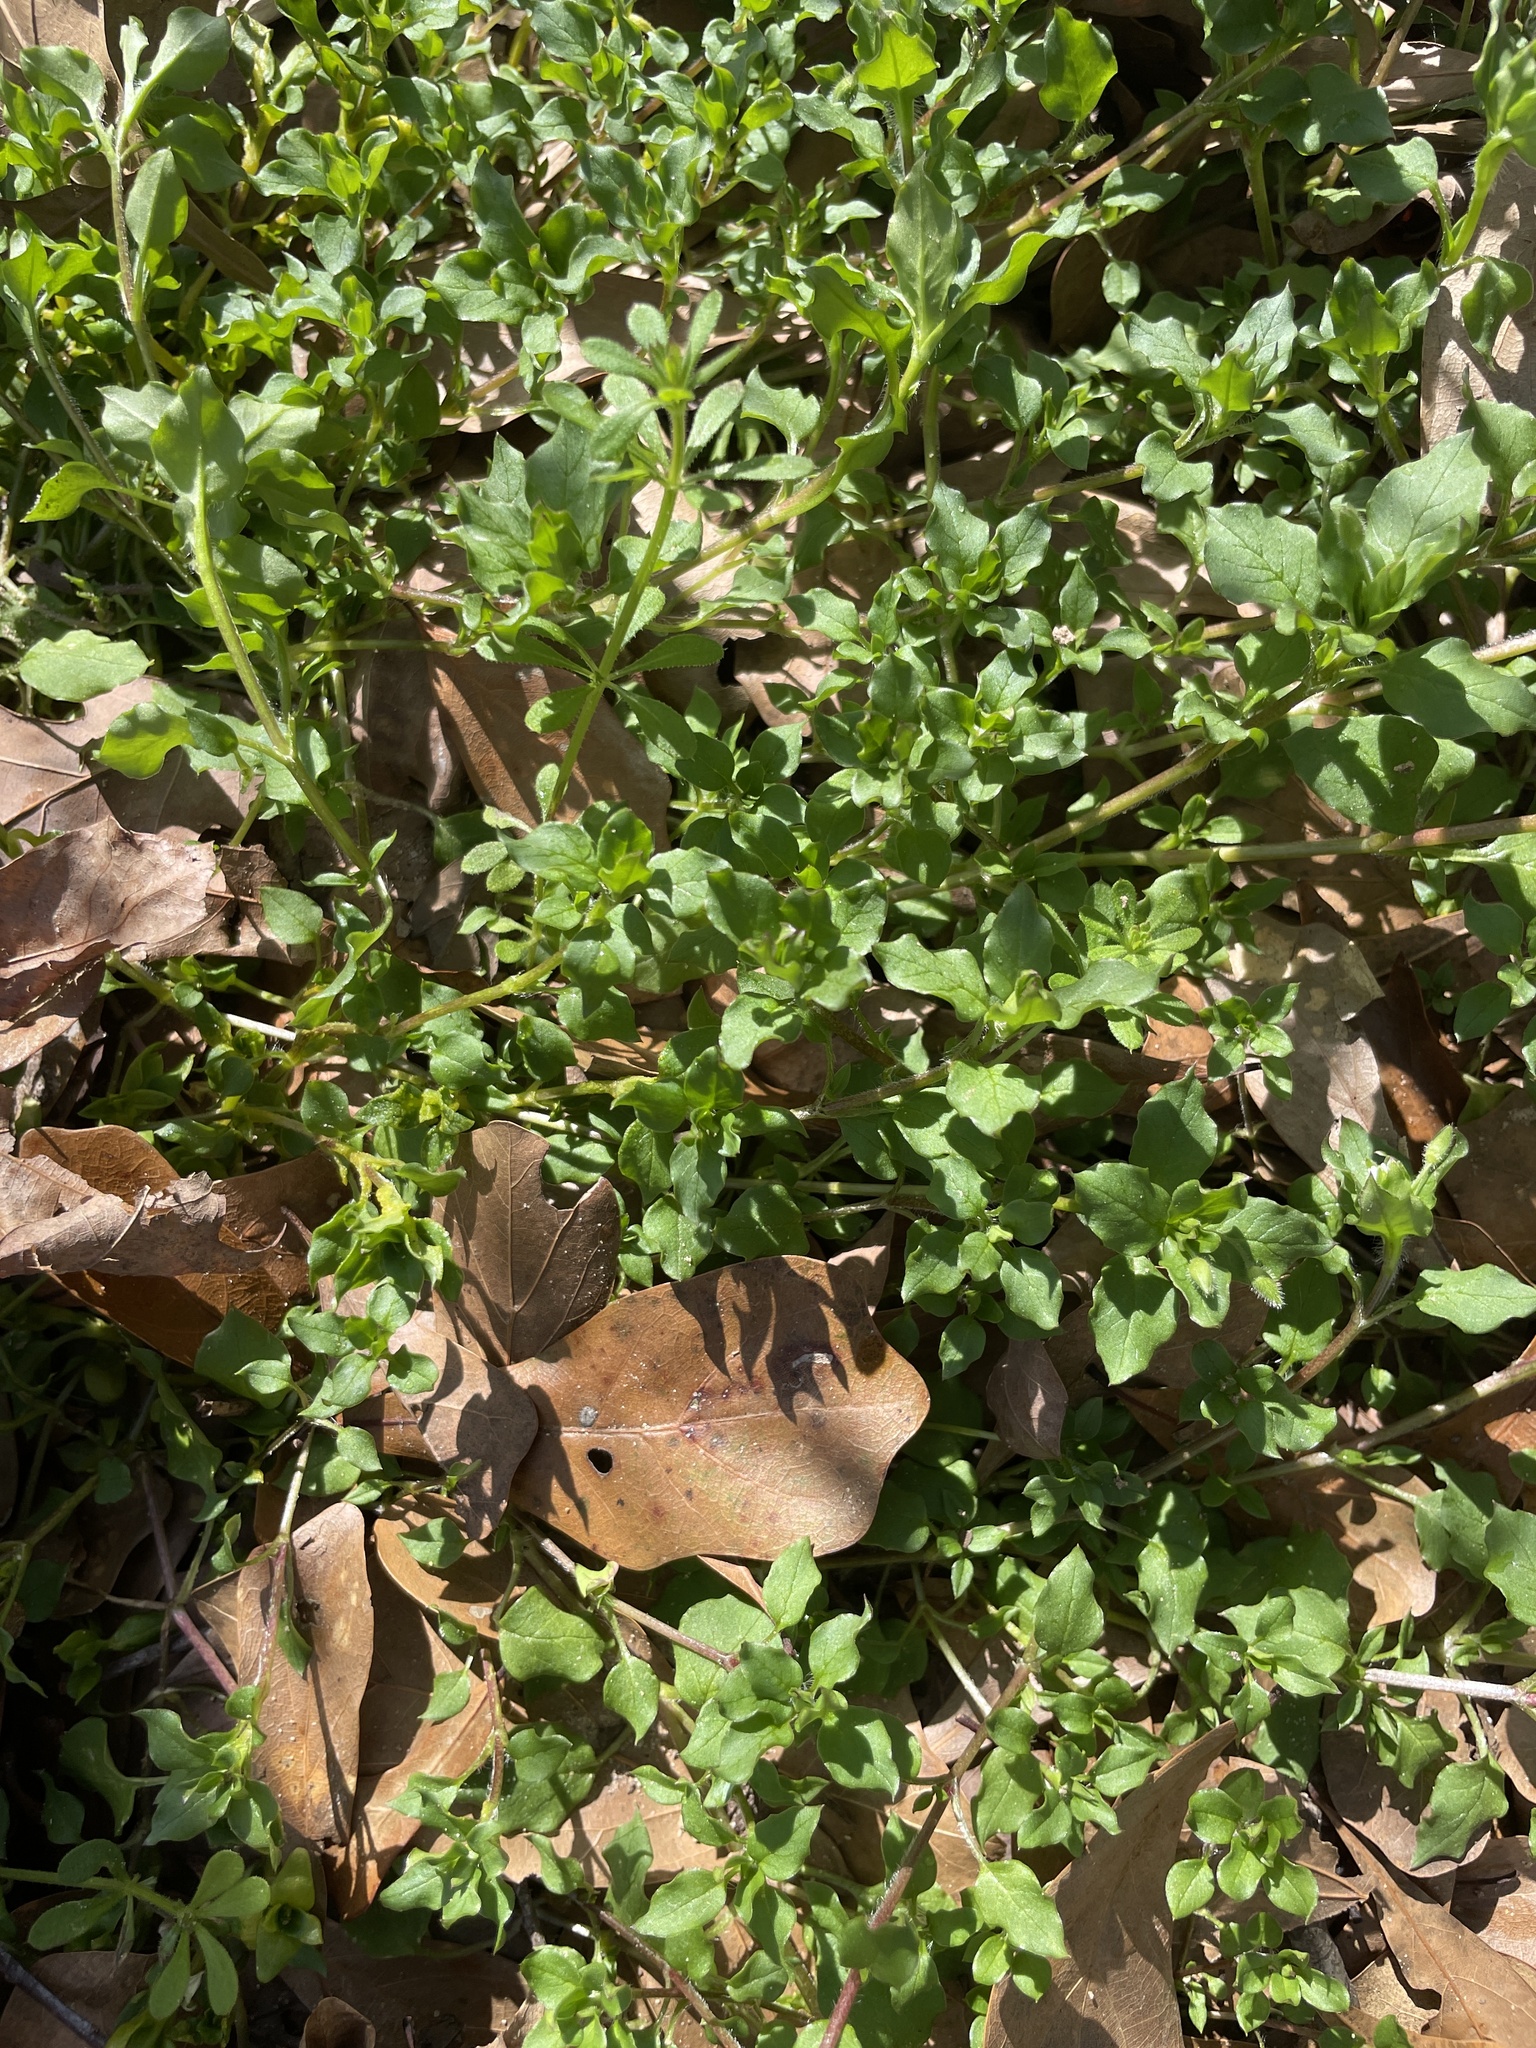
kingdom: Plantae
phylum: Tracheophyta
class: Magnoliopsida
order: Caryophyllales
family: Caryophyllaceae
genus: Stellaria
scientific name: Stellaria media
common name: Common chickweed
